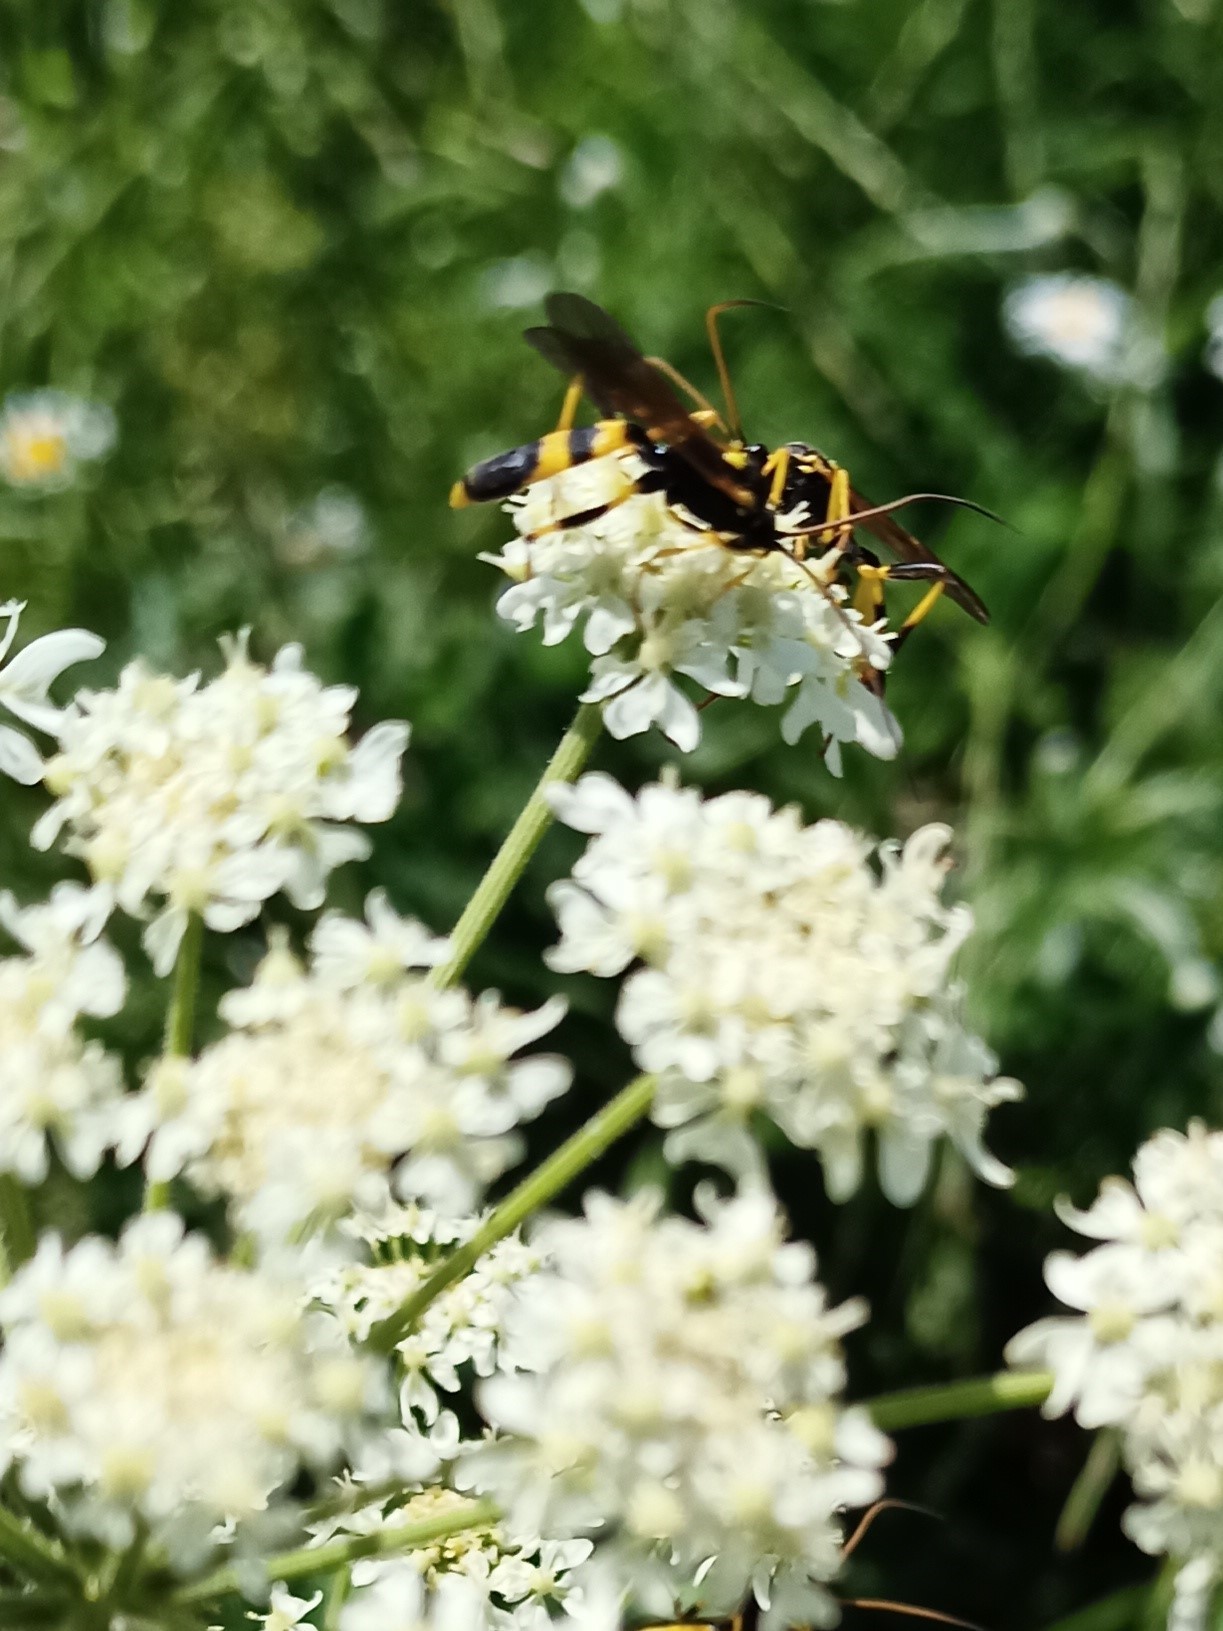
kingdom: Animalia
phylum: Arthropoda
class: Insecta
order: Hymenoptera
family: Ichneumonidae
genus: Amblyteles
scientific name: Amblyteles armatorius
